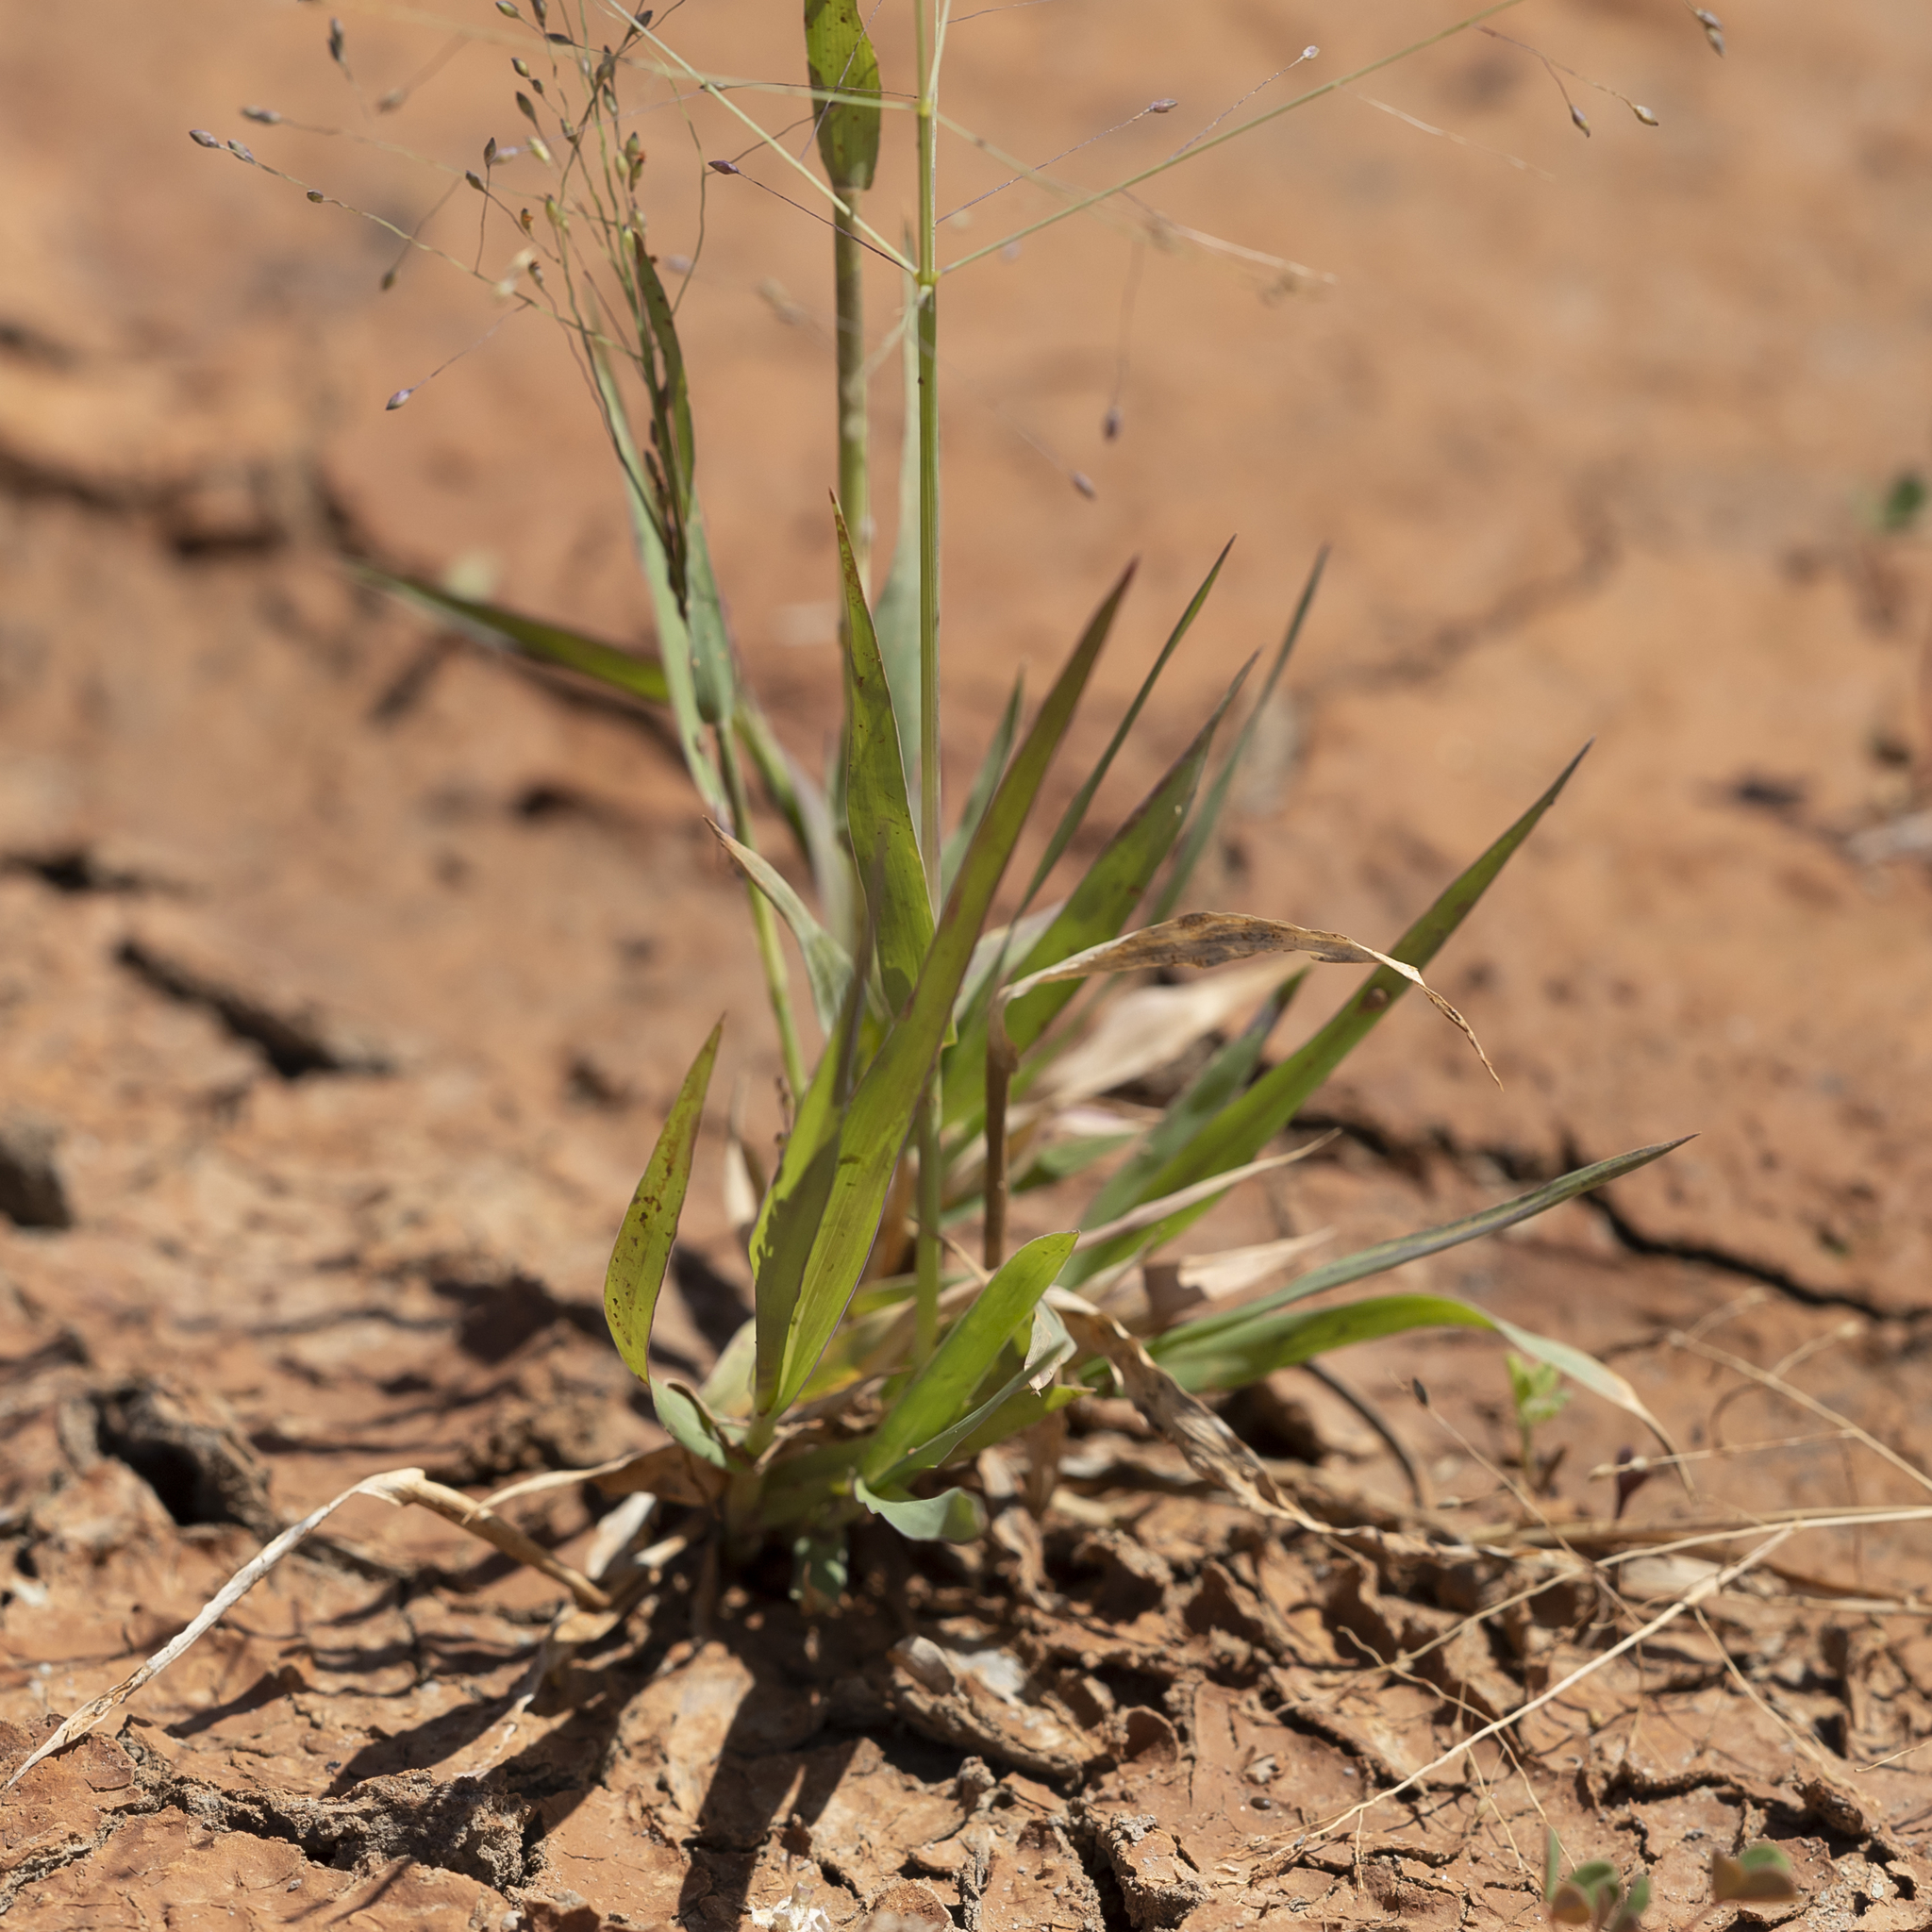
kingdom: Plantae
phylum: Tracheophyta
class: Liliopsida
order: Poales
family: Poaceae
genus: Panicum
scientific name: Panicum decompositum
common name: Australian millet
